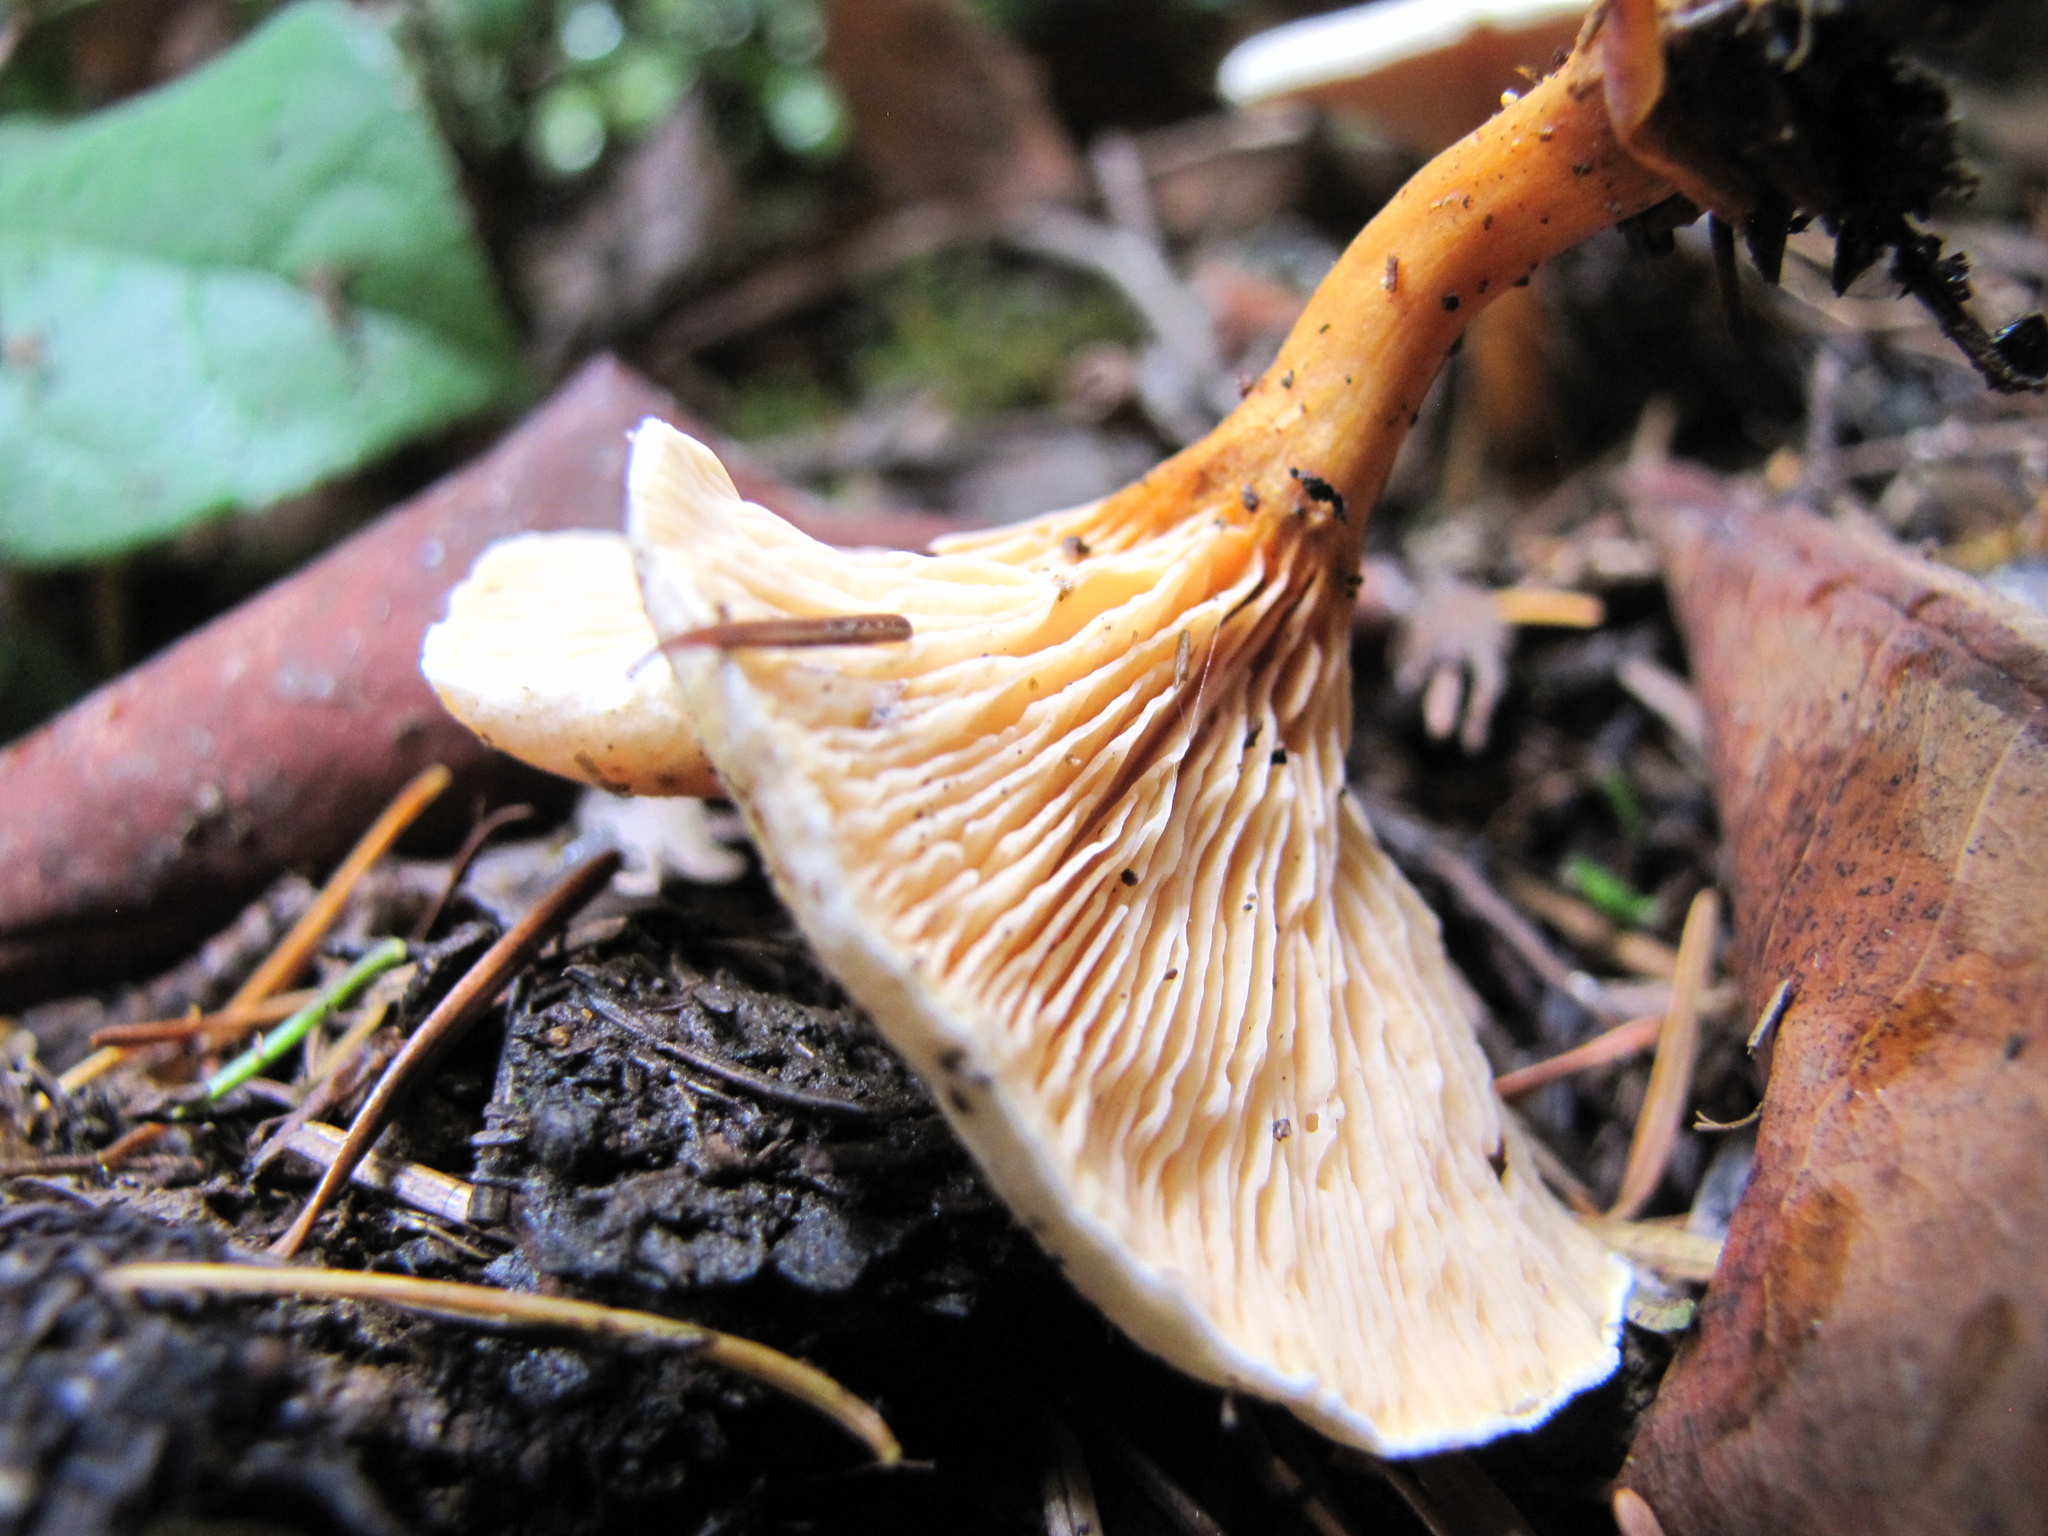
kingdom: Fungi
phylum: Basidiomycota
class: Agaricomycetes
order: Boletales
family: Hygrophoropsidaceae
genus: Hygrophoropsis
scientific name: Hygrophoropsis aurantiaca
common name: False chanterelle
